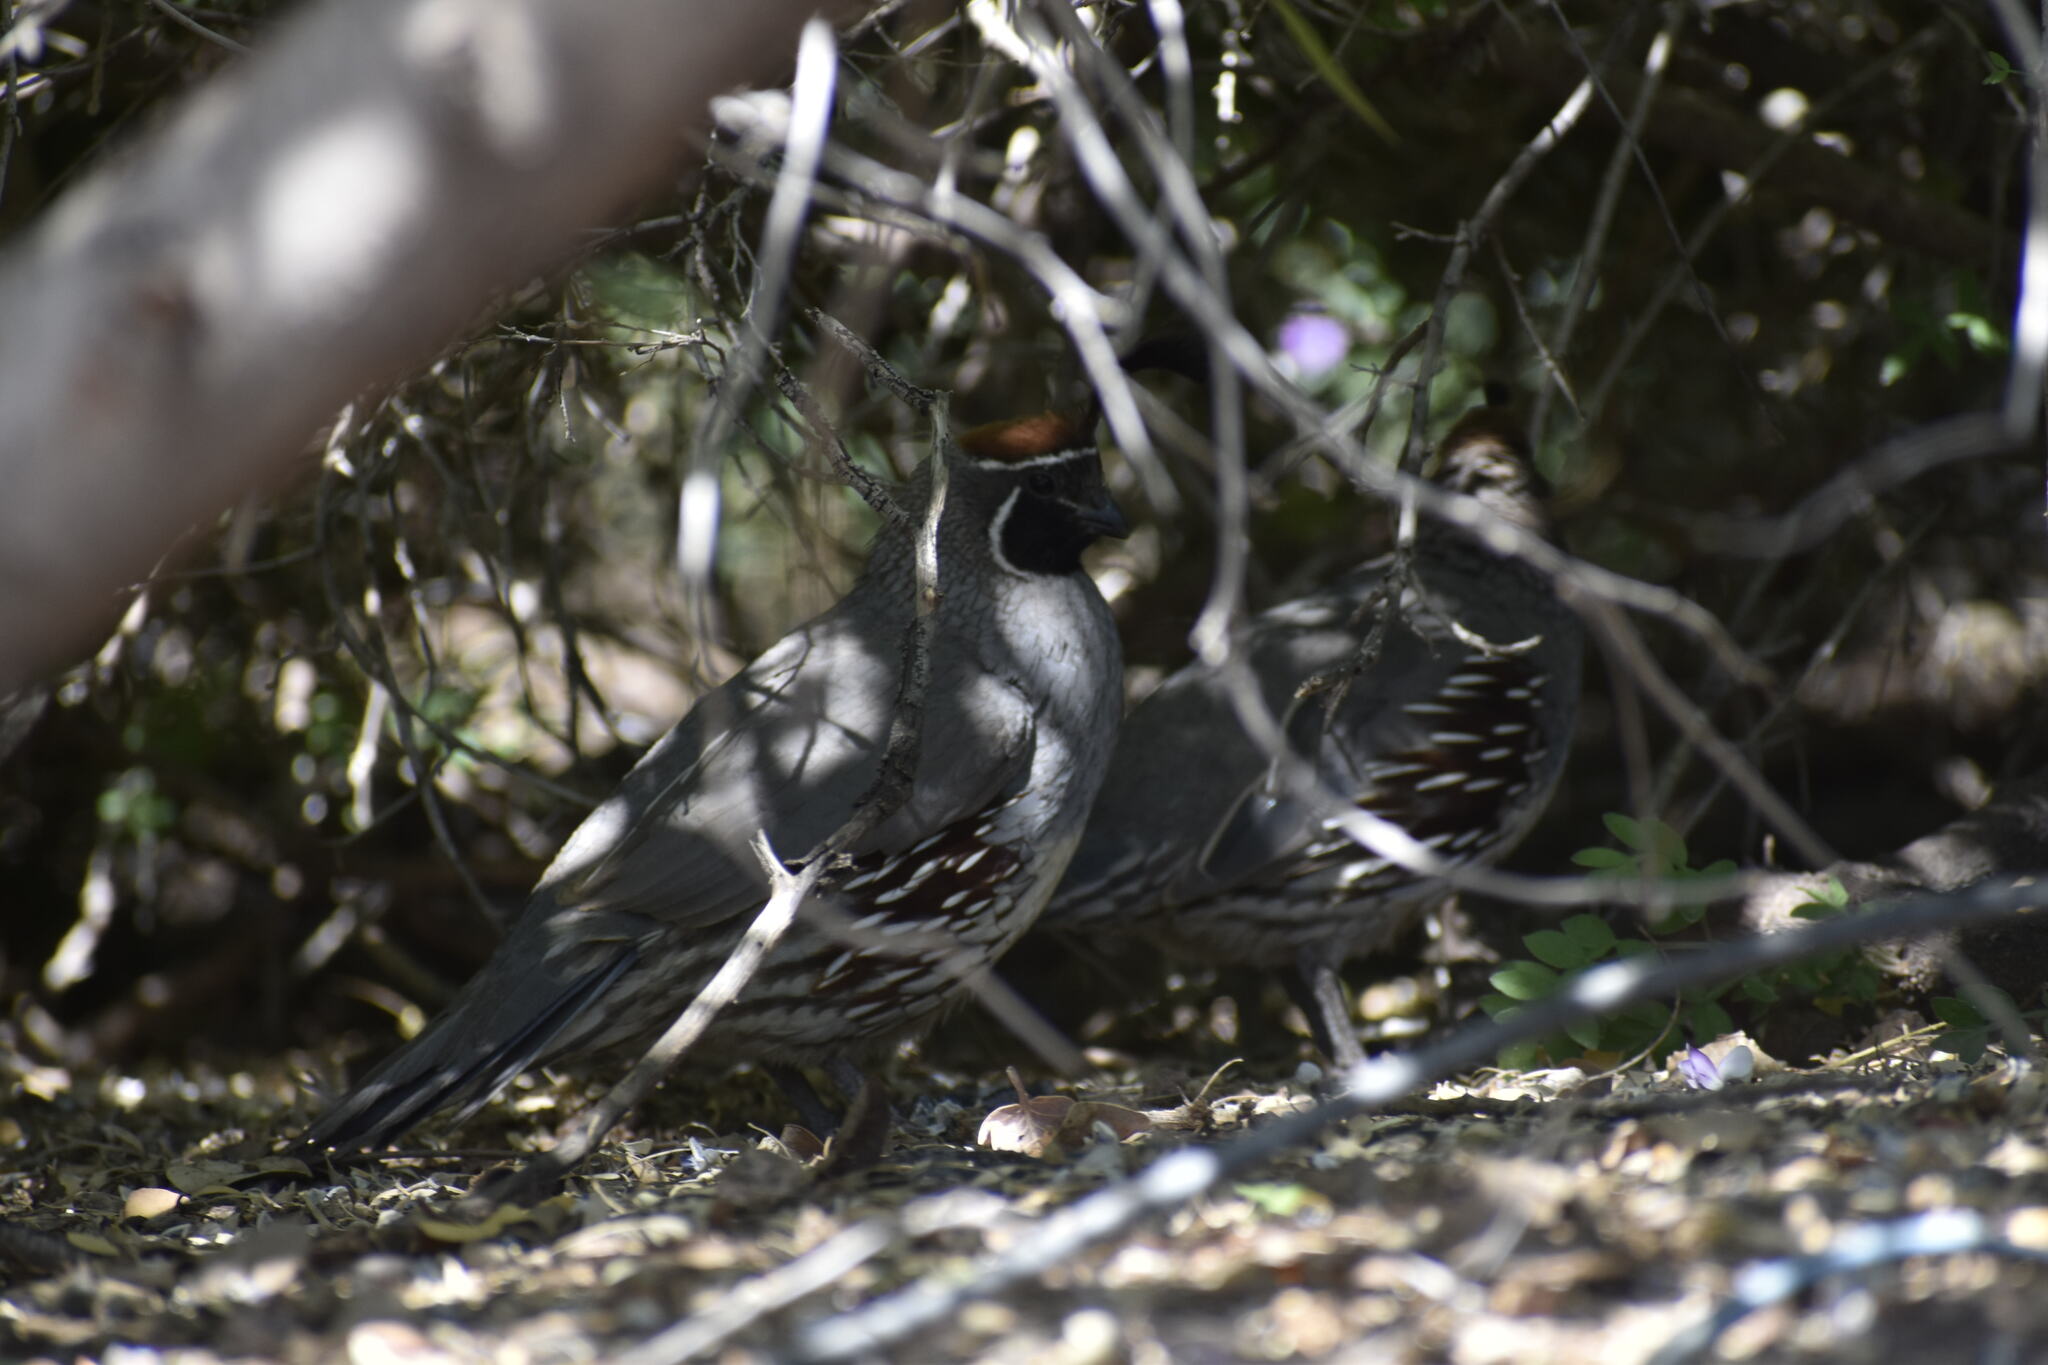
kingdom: Animalia
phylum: Chordata
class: Aves
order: Galliformes
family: Odontophoridae
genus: Callipepla
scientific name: Callipepla gambelii
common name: Gambel's quail
